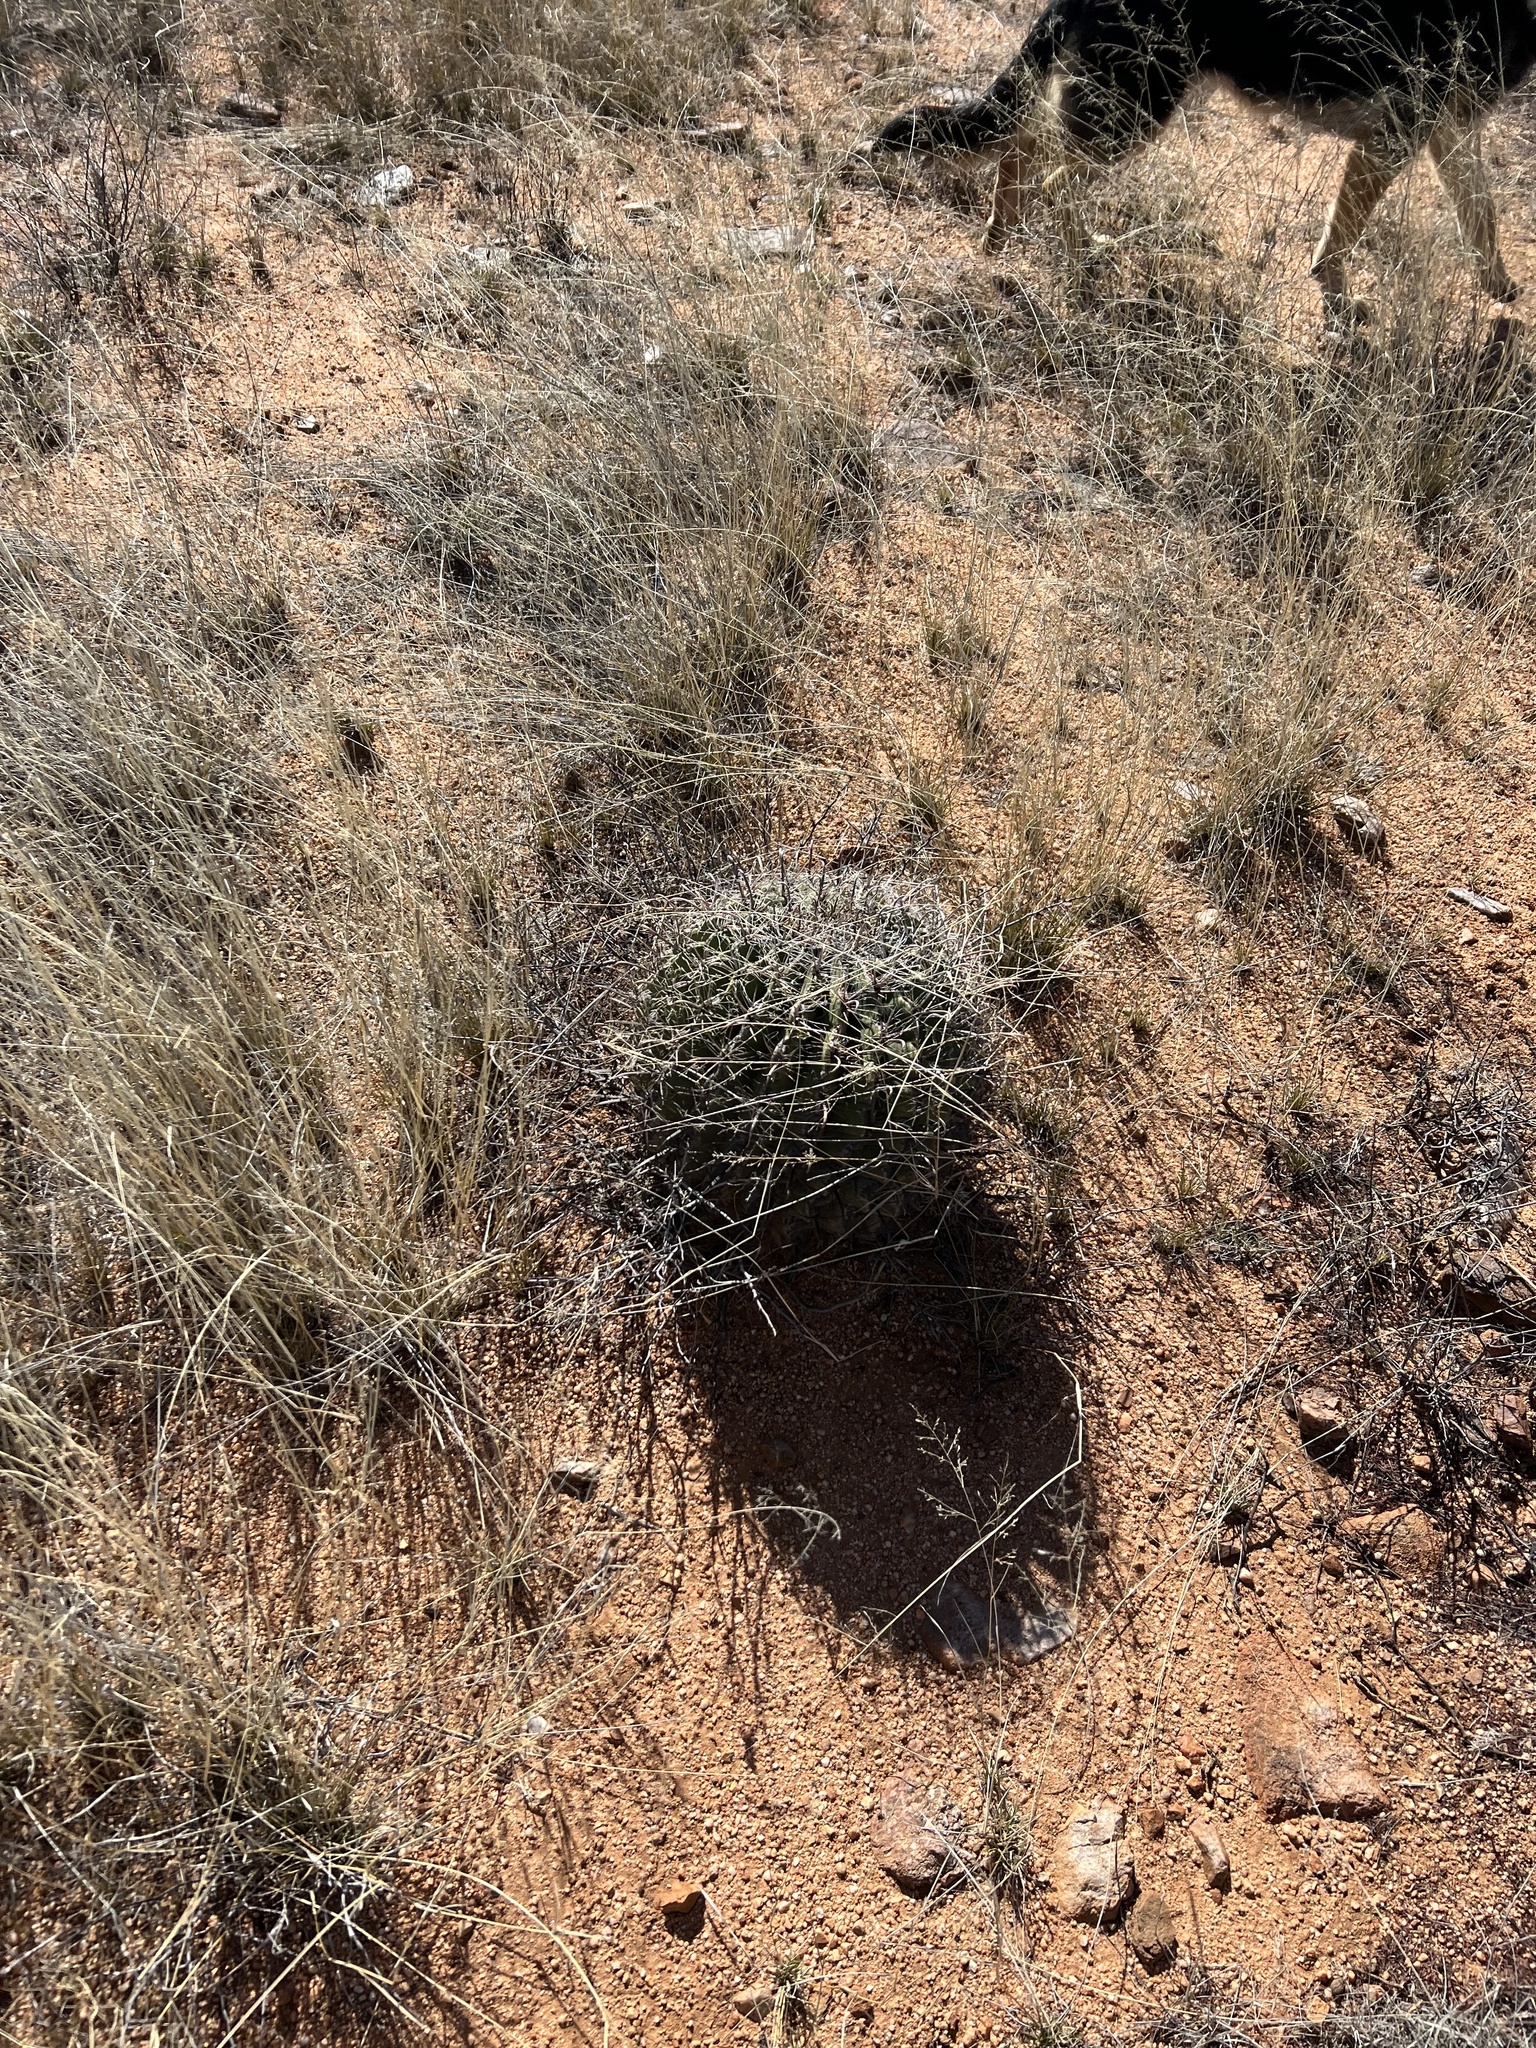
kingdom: Plantae
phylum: Tracheophyta
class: Magnoliopsida
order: Caryophyllales
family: Cactaceae
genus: Ferocactus
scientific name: Ferocactus wislizeni
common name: Candy barrel cactus
